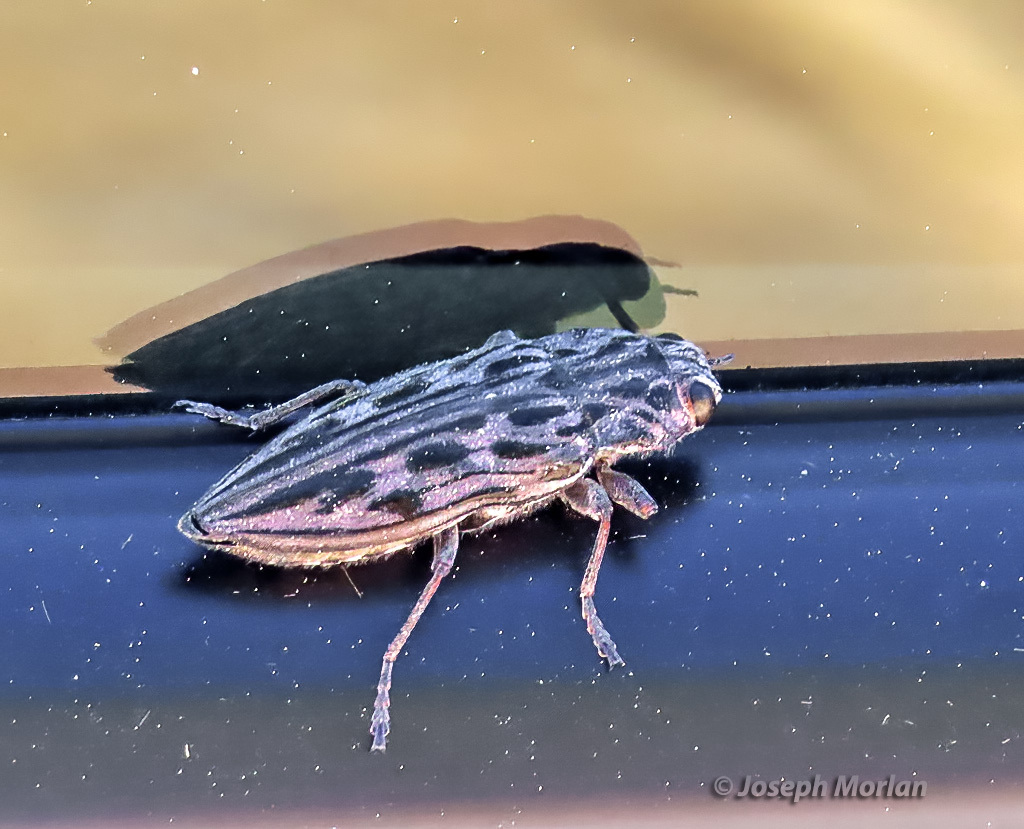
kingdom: Animalia
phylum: Arthropoda
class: Insecta
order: Coleoptera
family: Buprestidae
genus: Chalcophora
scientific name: Chalcophora angulicollis
